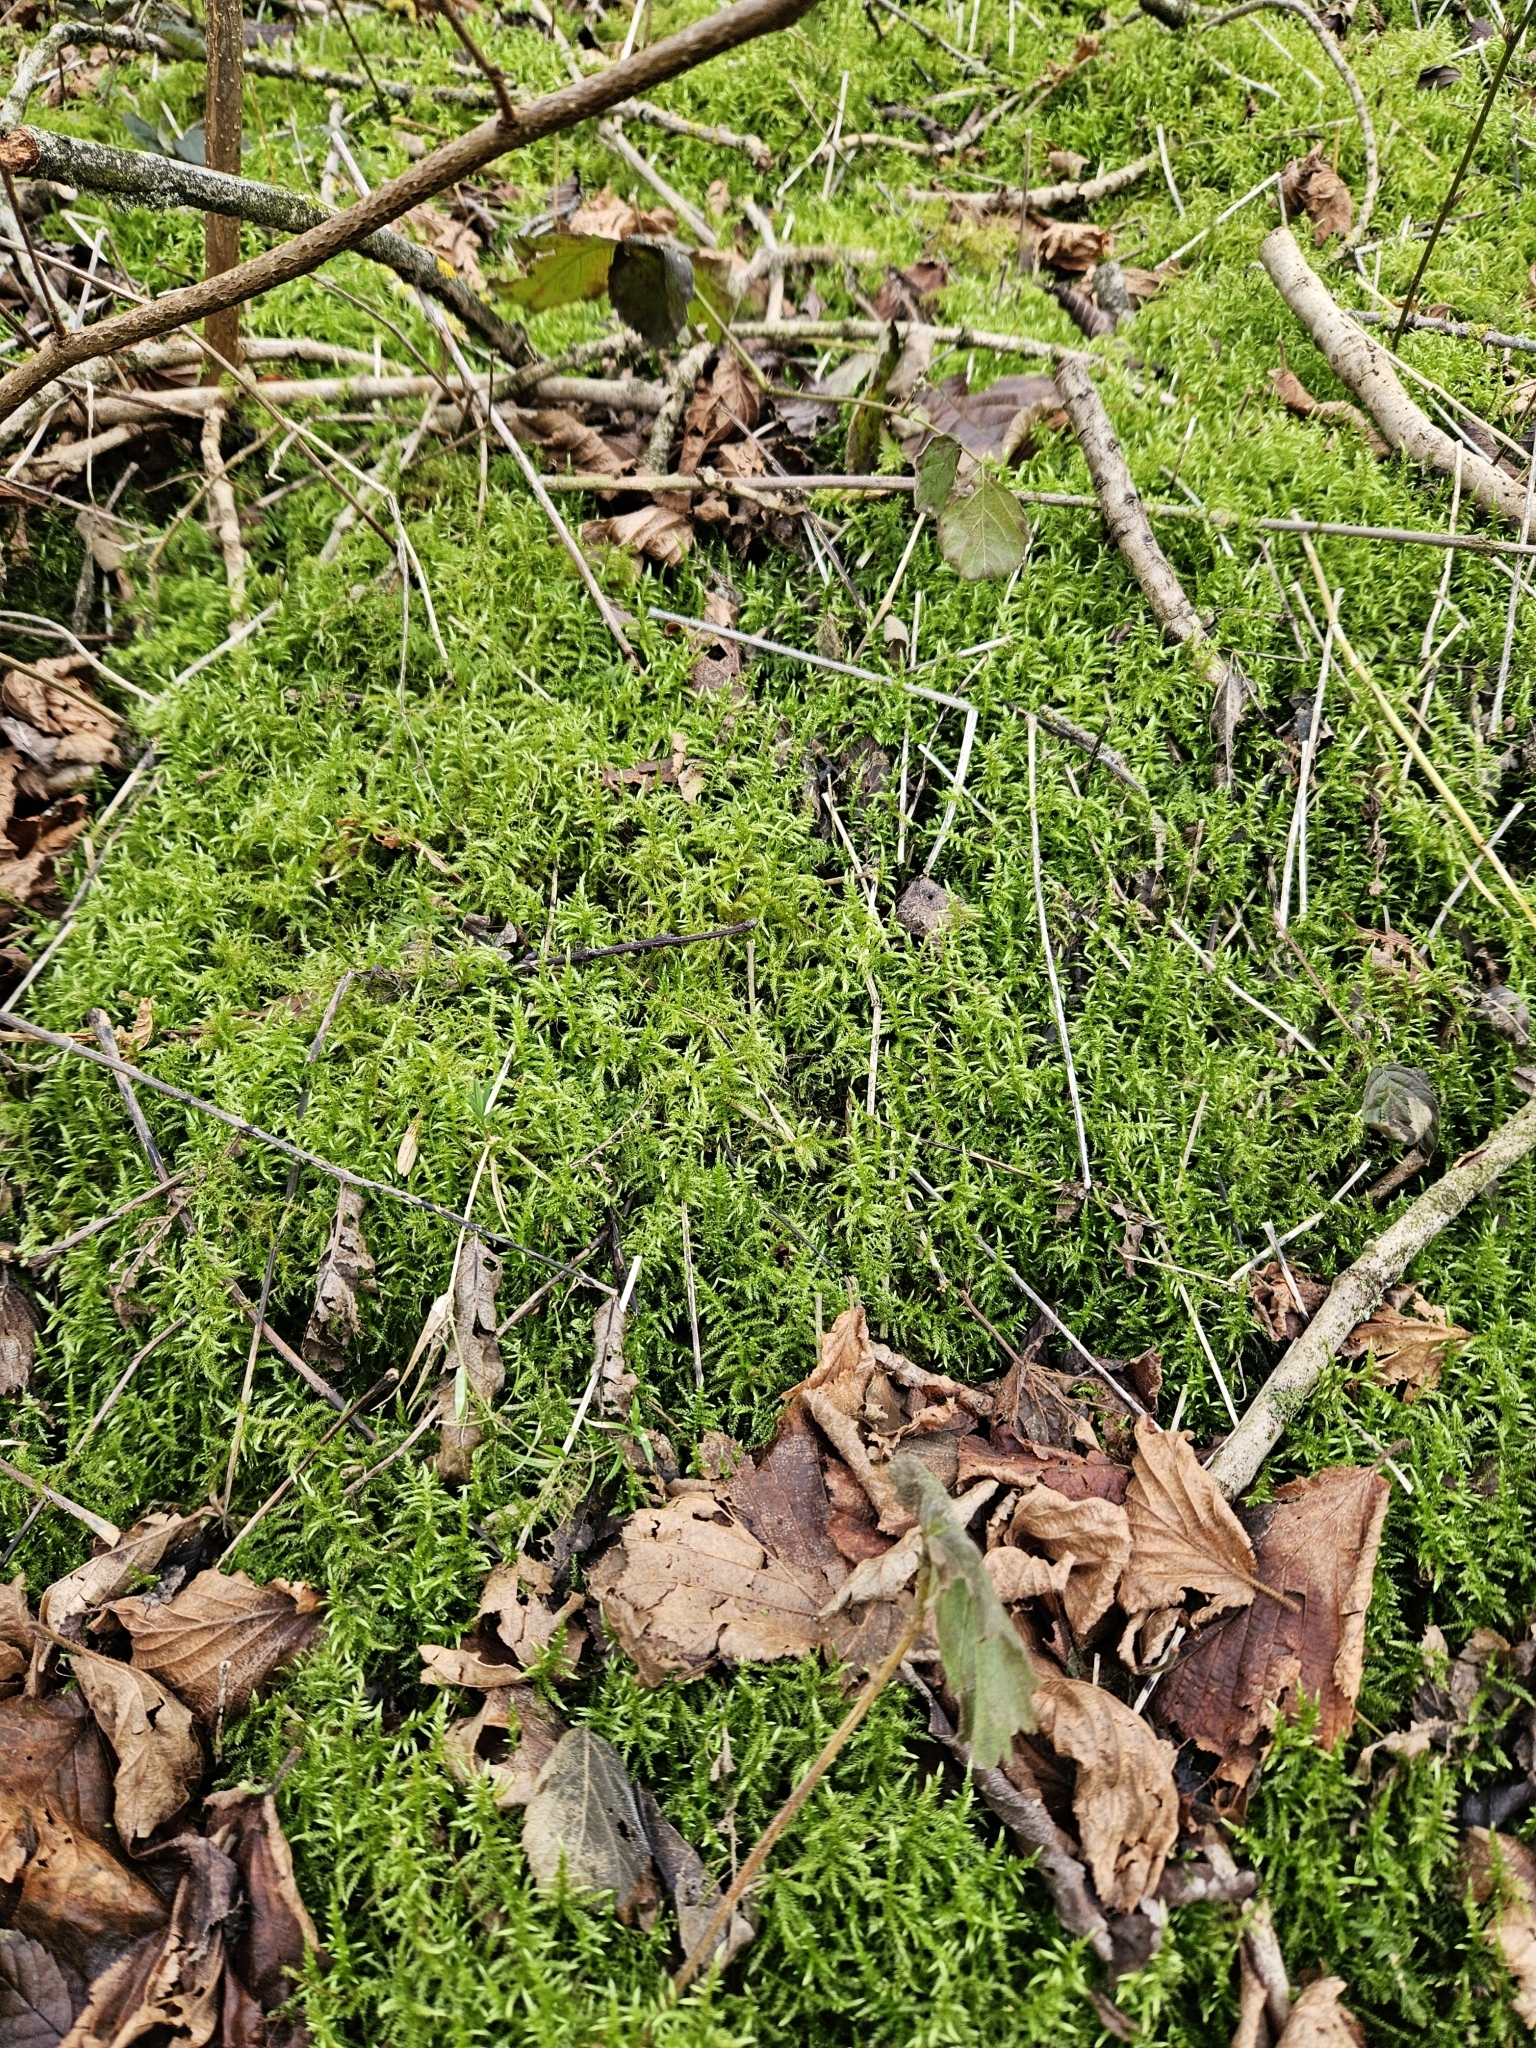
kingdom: Plantae
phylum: Bryophyta
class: Bryopsida
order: Hypnales
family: Brachytheciaceae
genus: Cirriphyllum
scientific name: Cirriphyllum piliferum
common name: Hair-pointed moss
